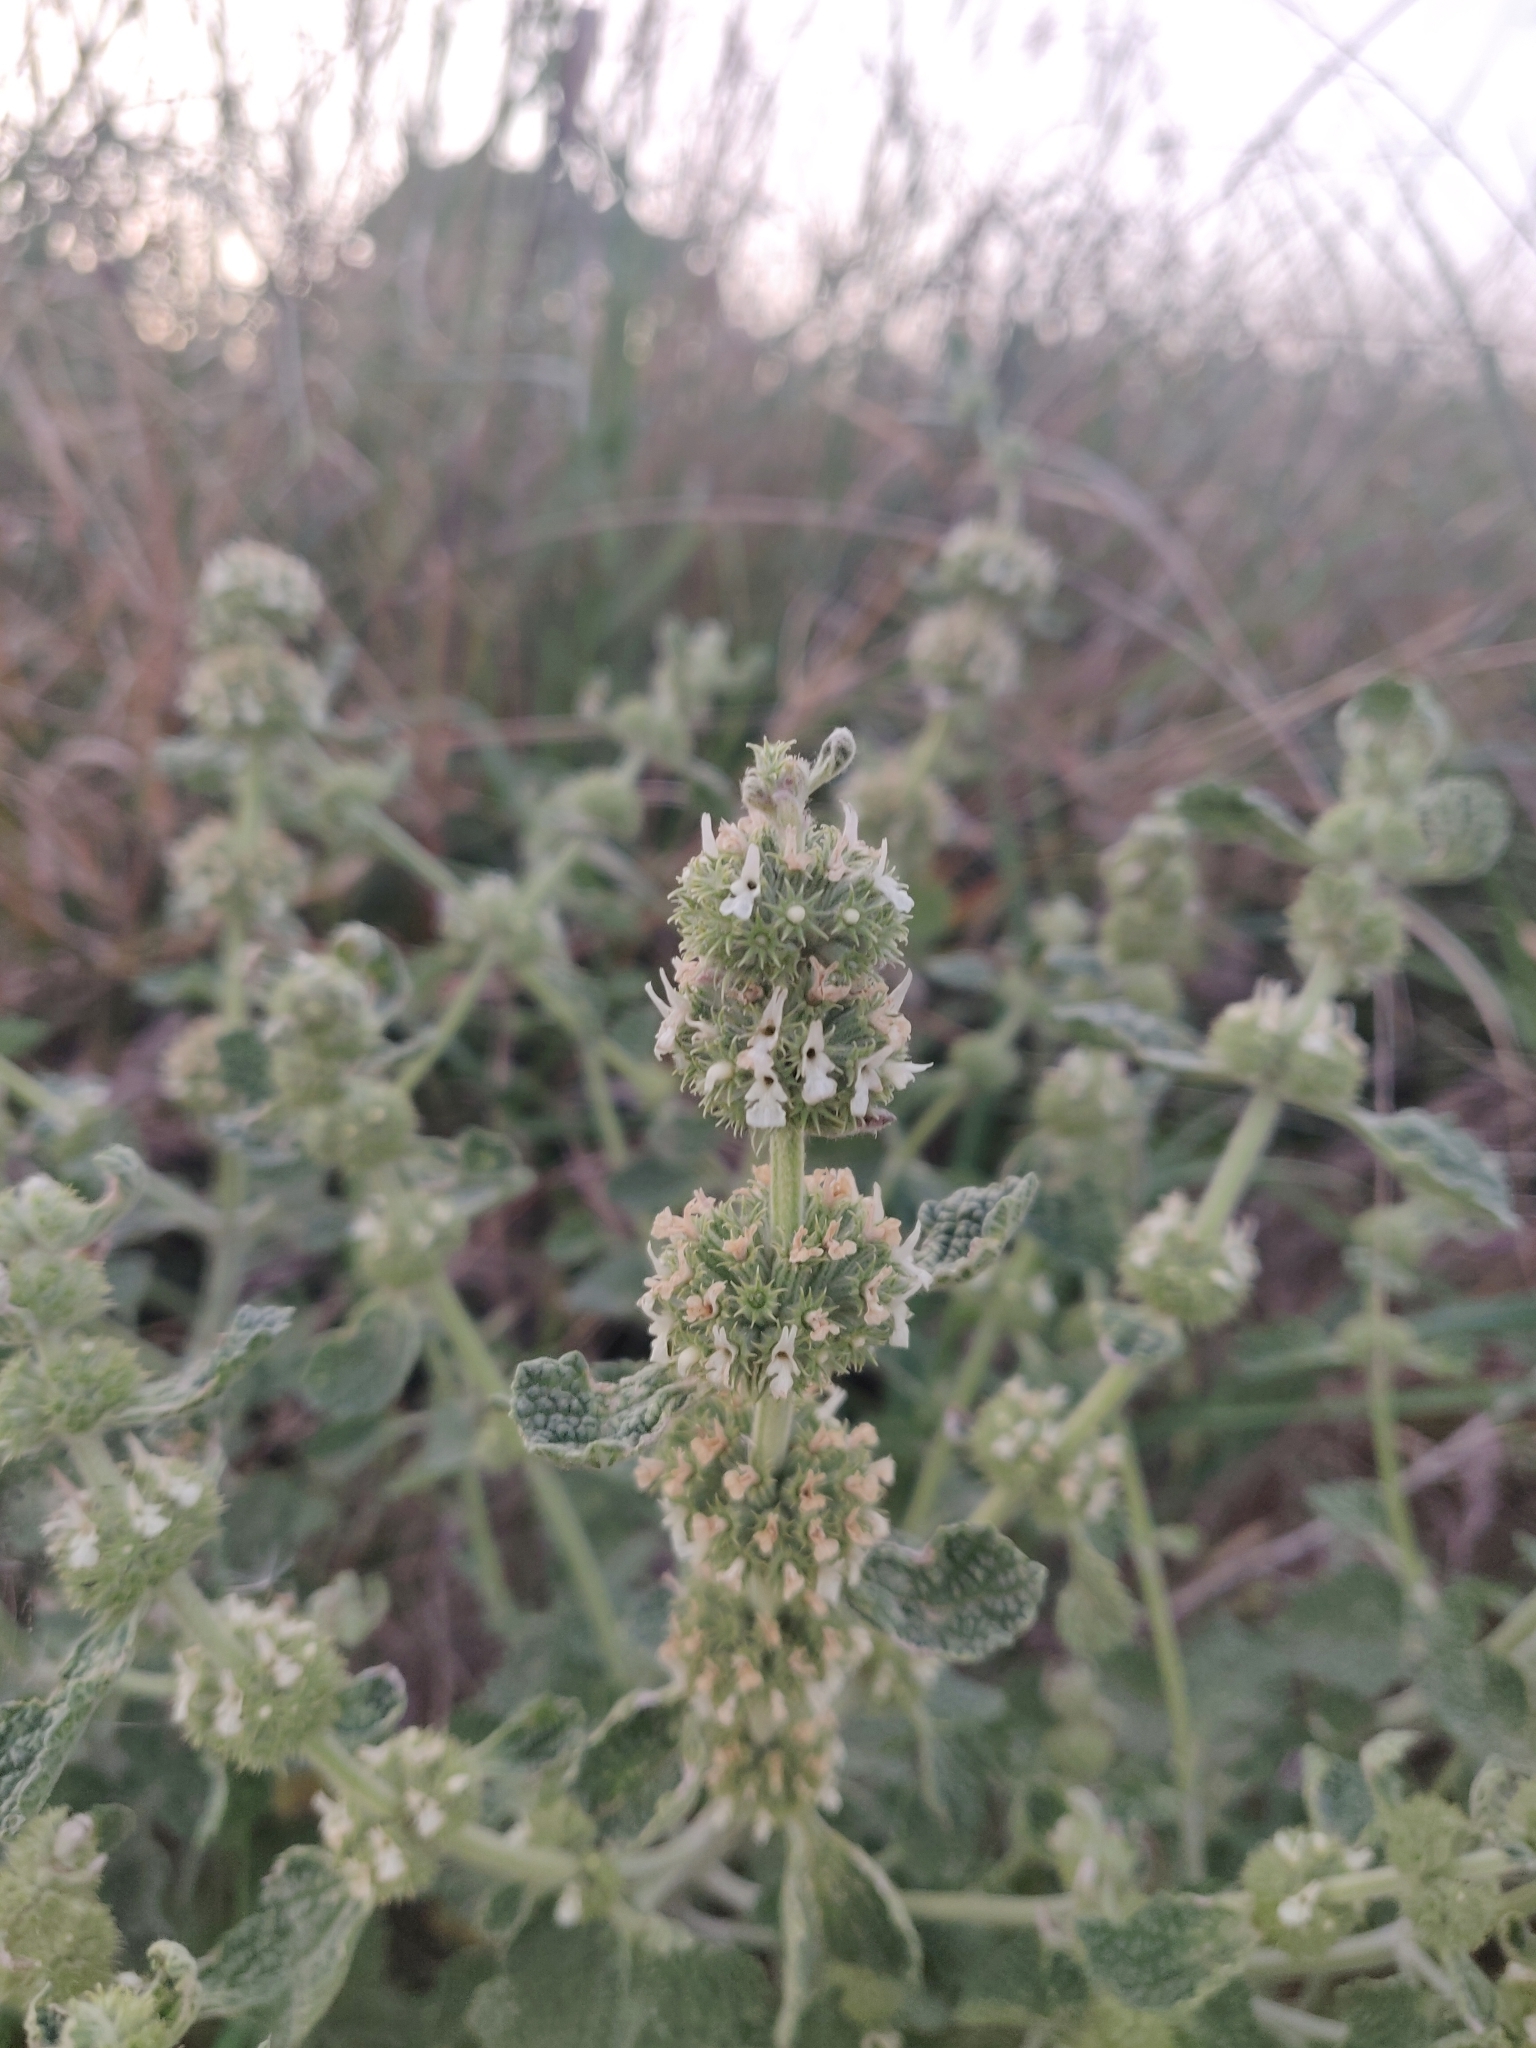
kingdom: Plantae
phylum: Tracheophyta
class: Magnoliopsida
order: Lamiales
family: Lamiaceae
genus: Marrubium
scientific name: Marrubium vulgare
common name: Horehound
